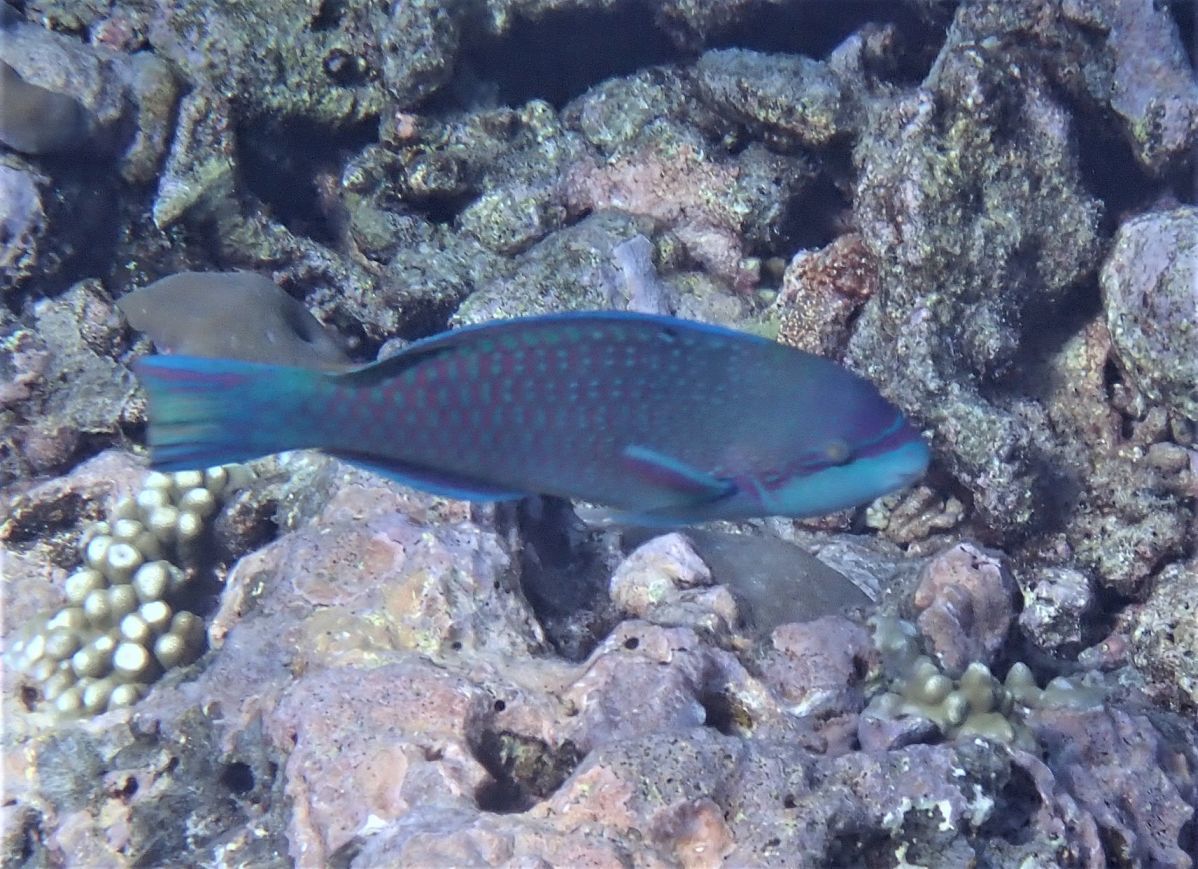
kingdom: Animalia
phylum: Chordata
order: Perciformes
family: Scaridae
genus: Scarus
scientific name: Scarus globiceps
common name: Globehead parrotfish
